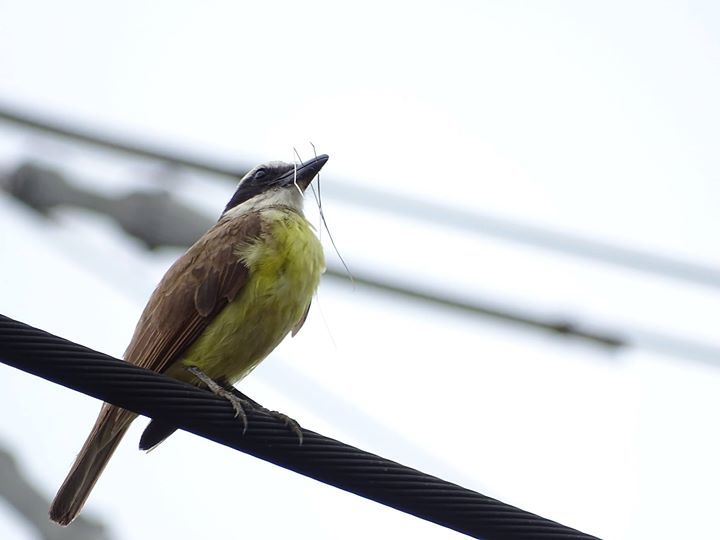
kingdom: Animalia
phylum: Chordata
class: Aves
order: Passeriformes
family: Tyrannidae
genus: Pitangus
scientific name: Pitangus sulphuratus
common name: Great kiskadee
